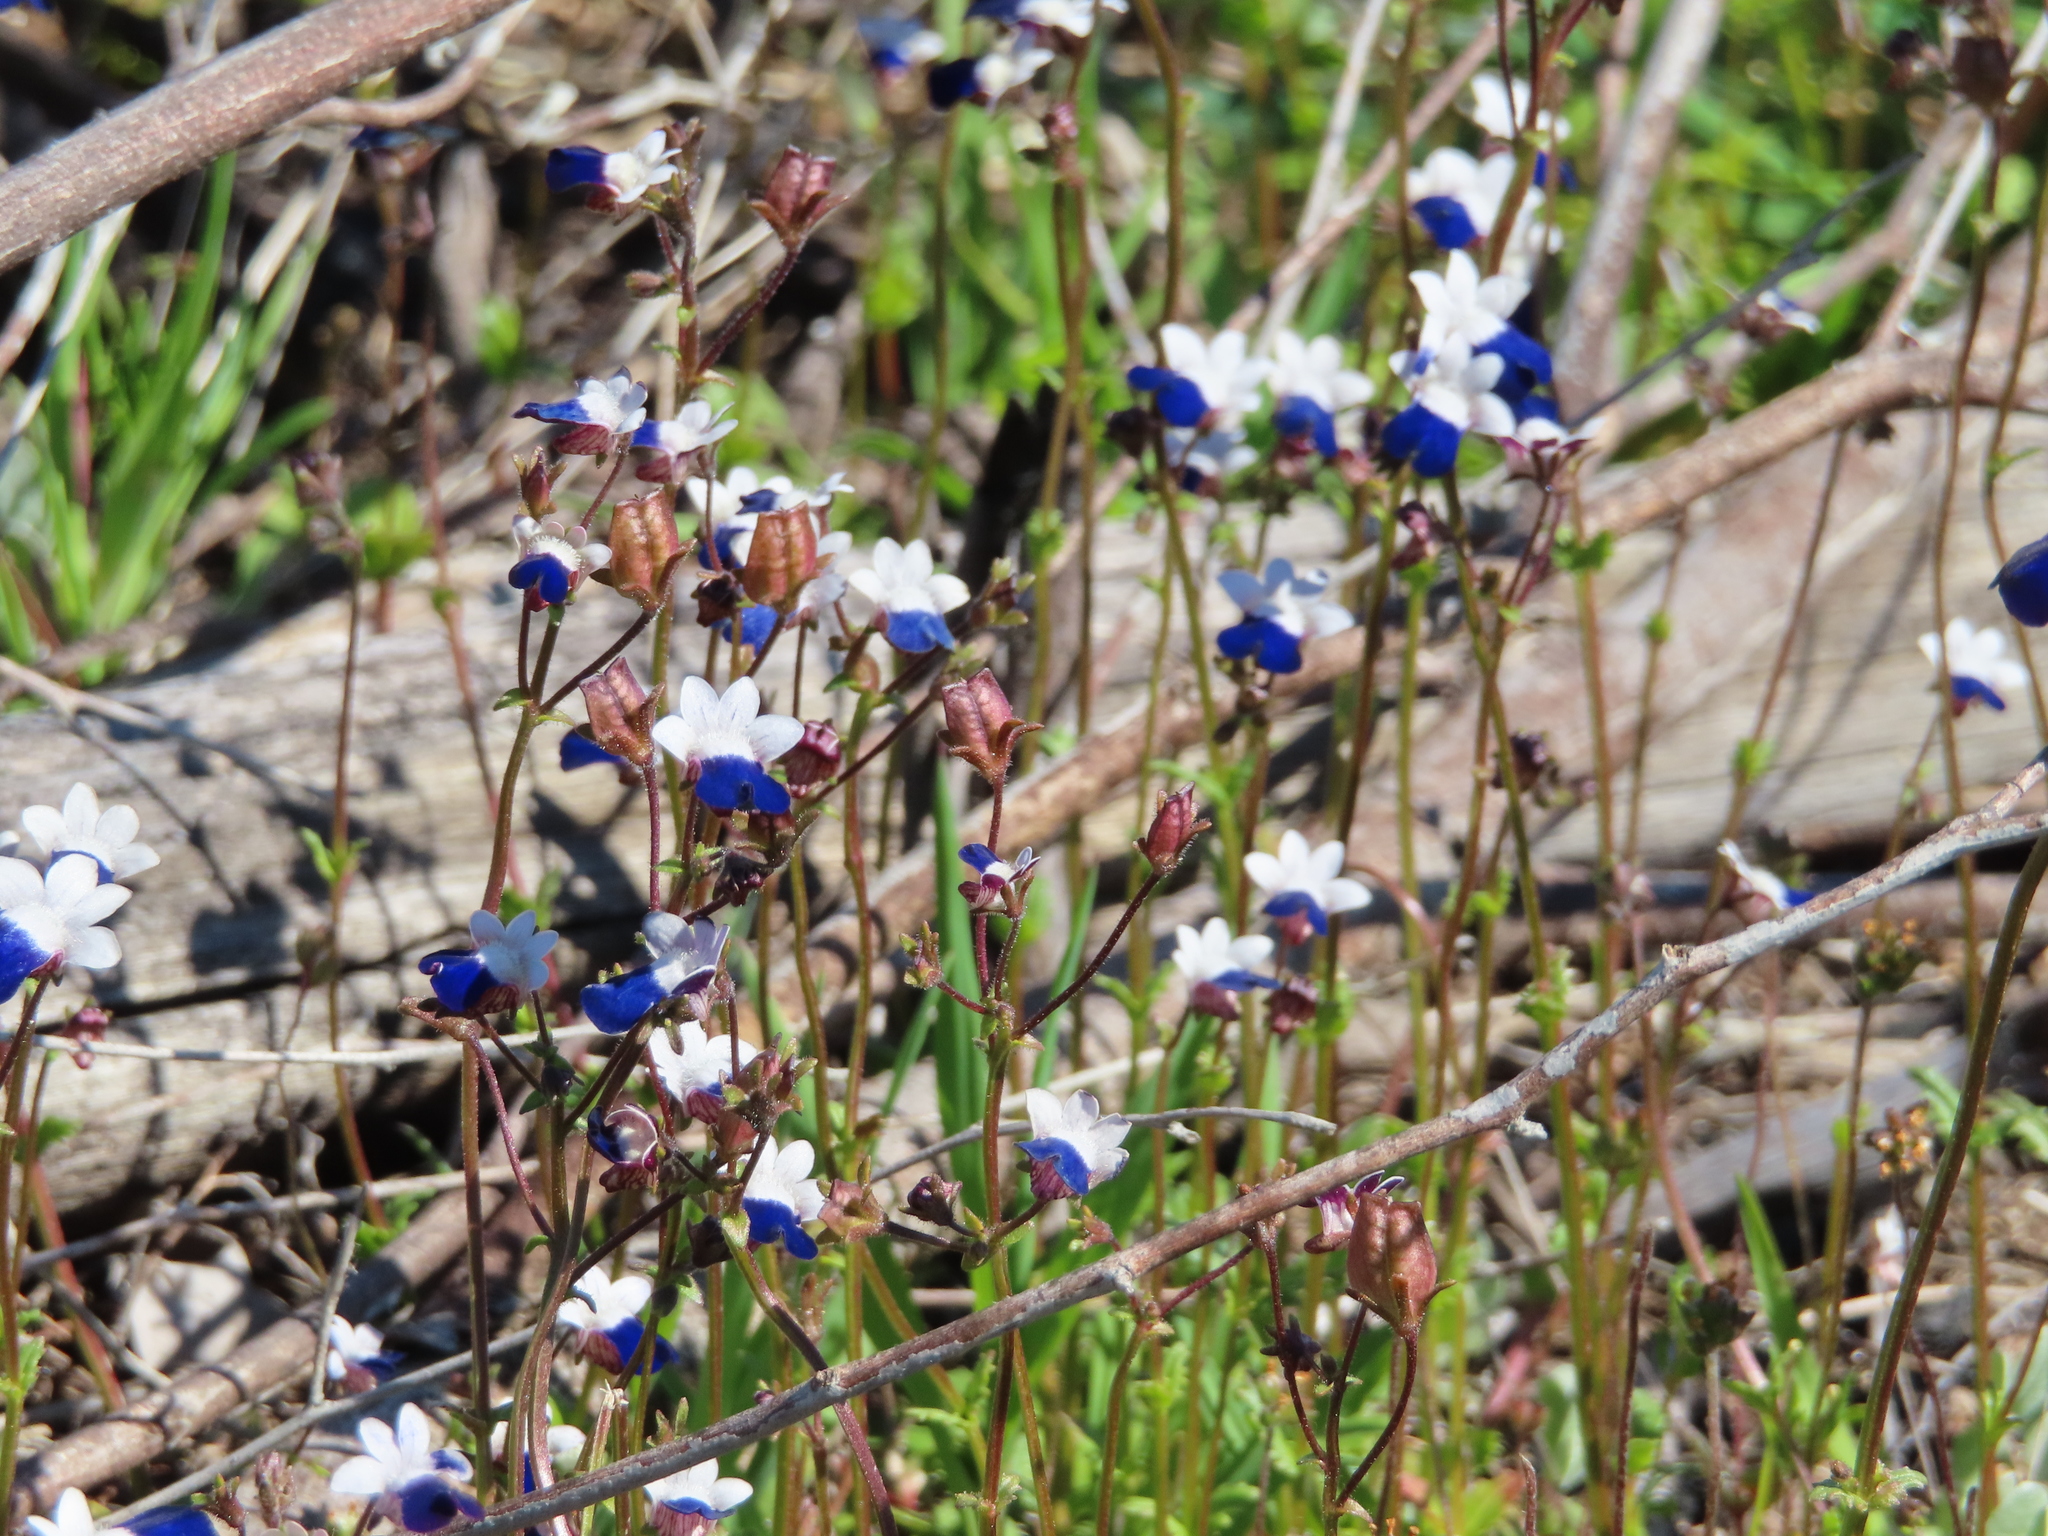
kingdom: Plantae
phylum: Tracheophyta
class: Magnoliopsida
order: Lamiales
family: Scrophulariaceae
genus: Nemesia
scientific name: Nemesia barbata
